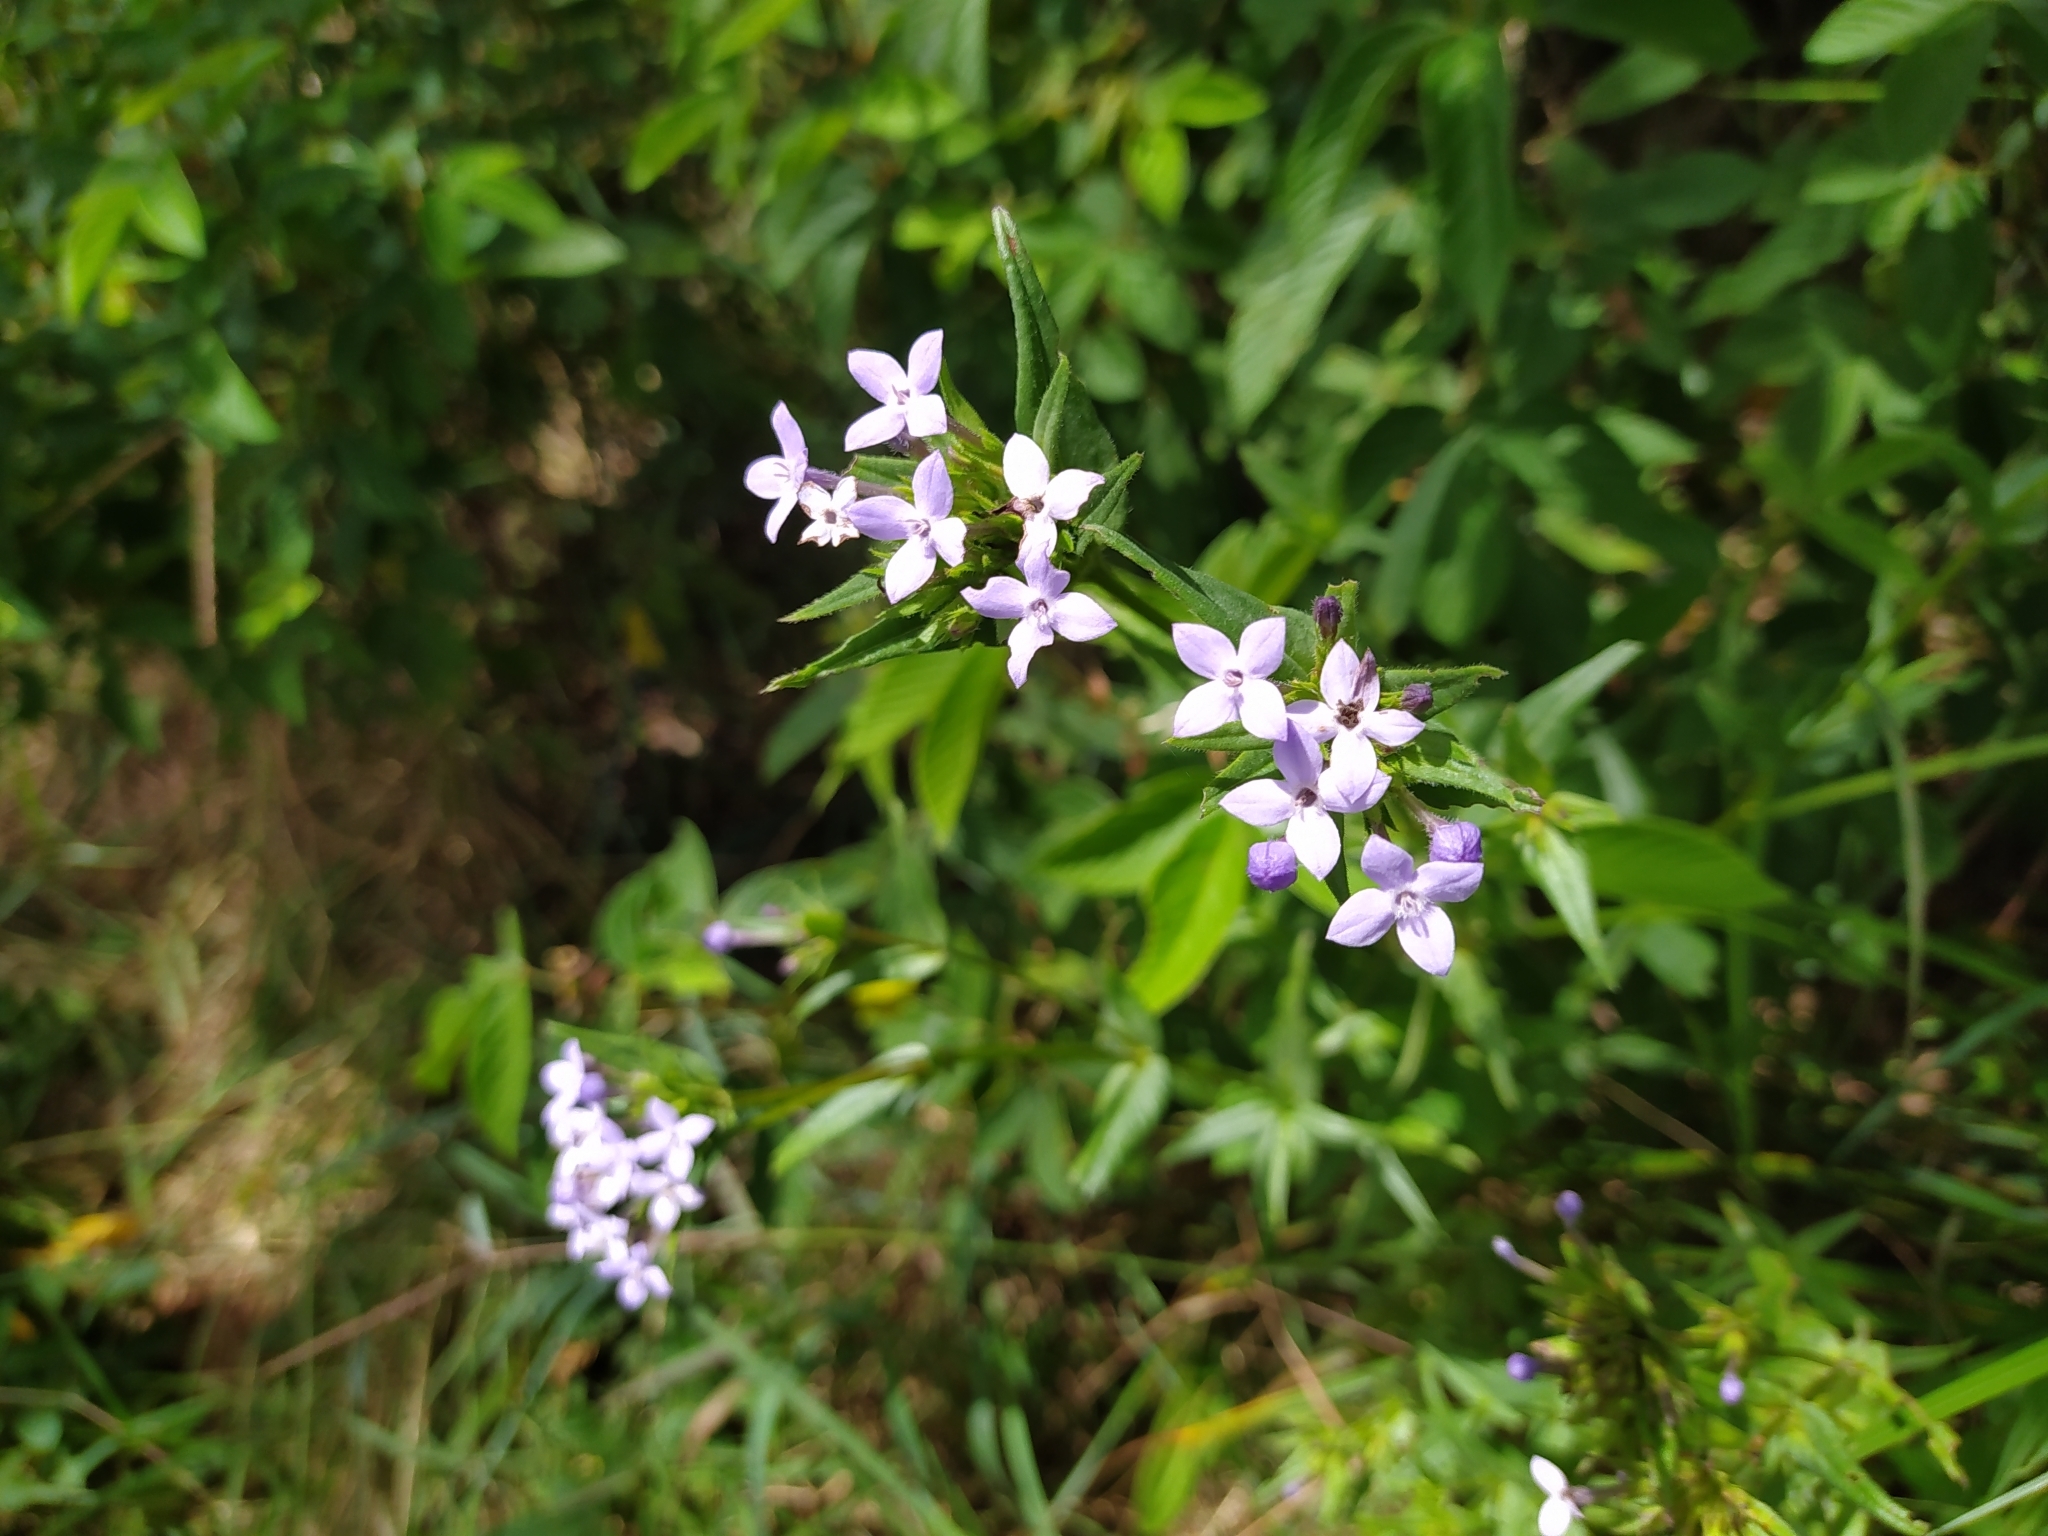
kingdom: Plantae
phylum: Tracheophyta
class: Magnoliopsida
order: Gentianales
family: Rubiaceae
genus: Conostomium
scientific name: Conostomium natalense
